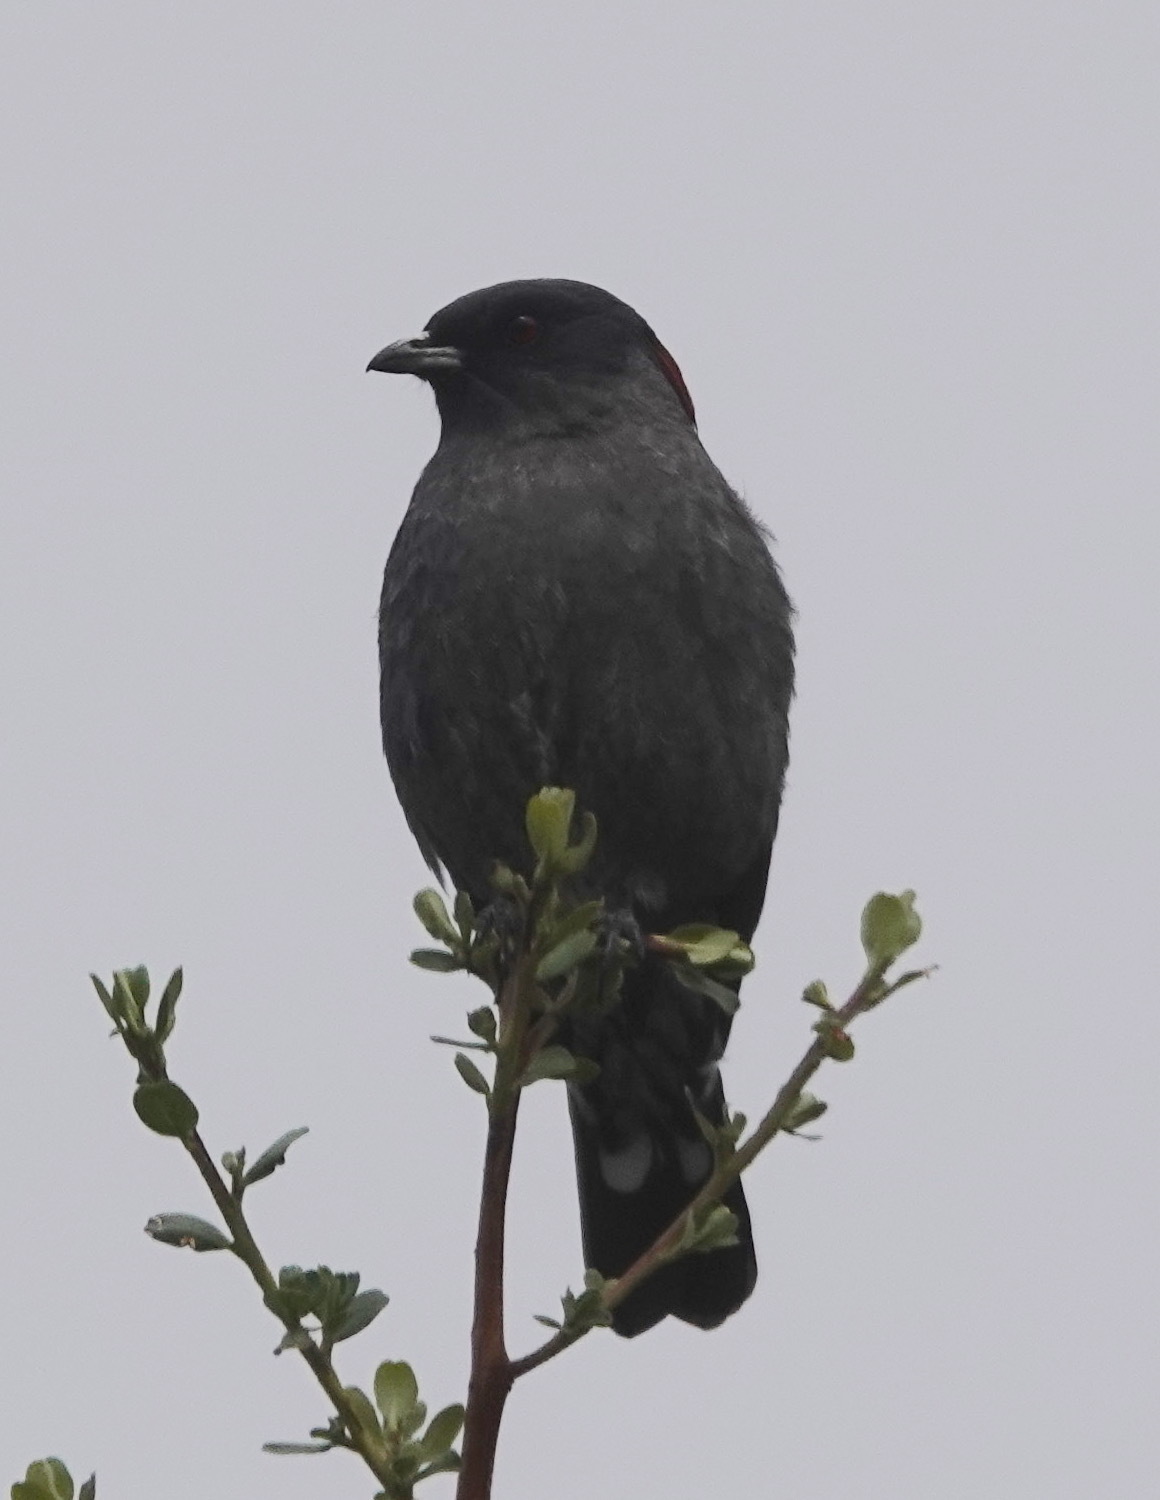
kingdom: Animalia
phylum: Chordata
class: Aves
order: Passeriformes
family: Cotingidae
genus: Ampelion
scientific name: Ampelion rubrocristatus
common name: Red-crested cotinga
